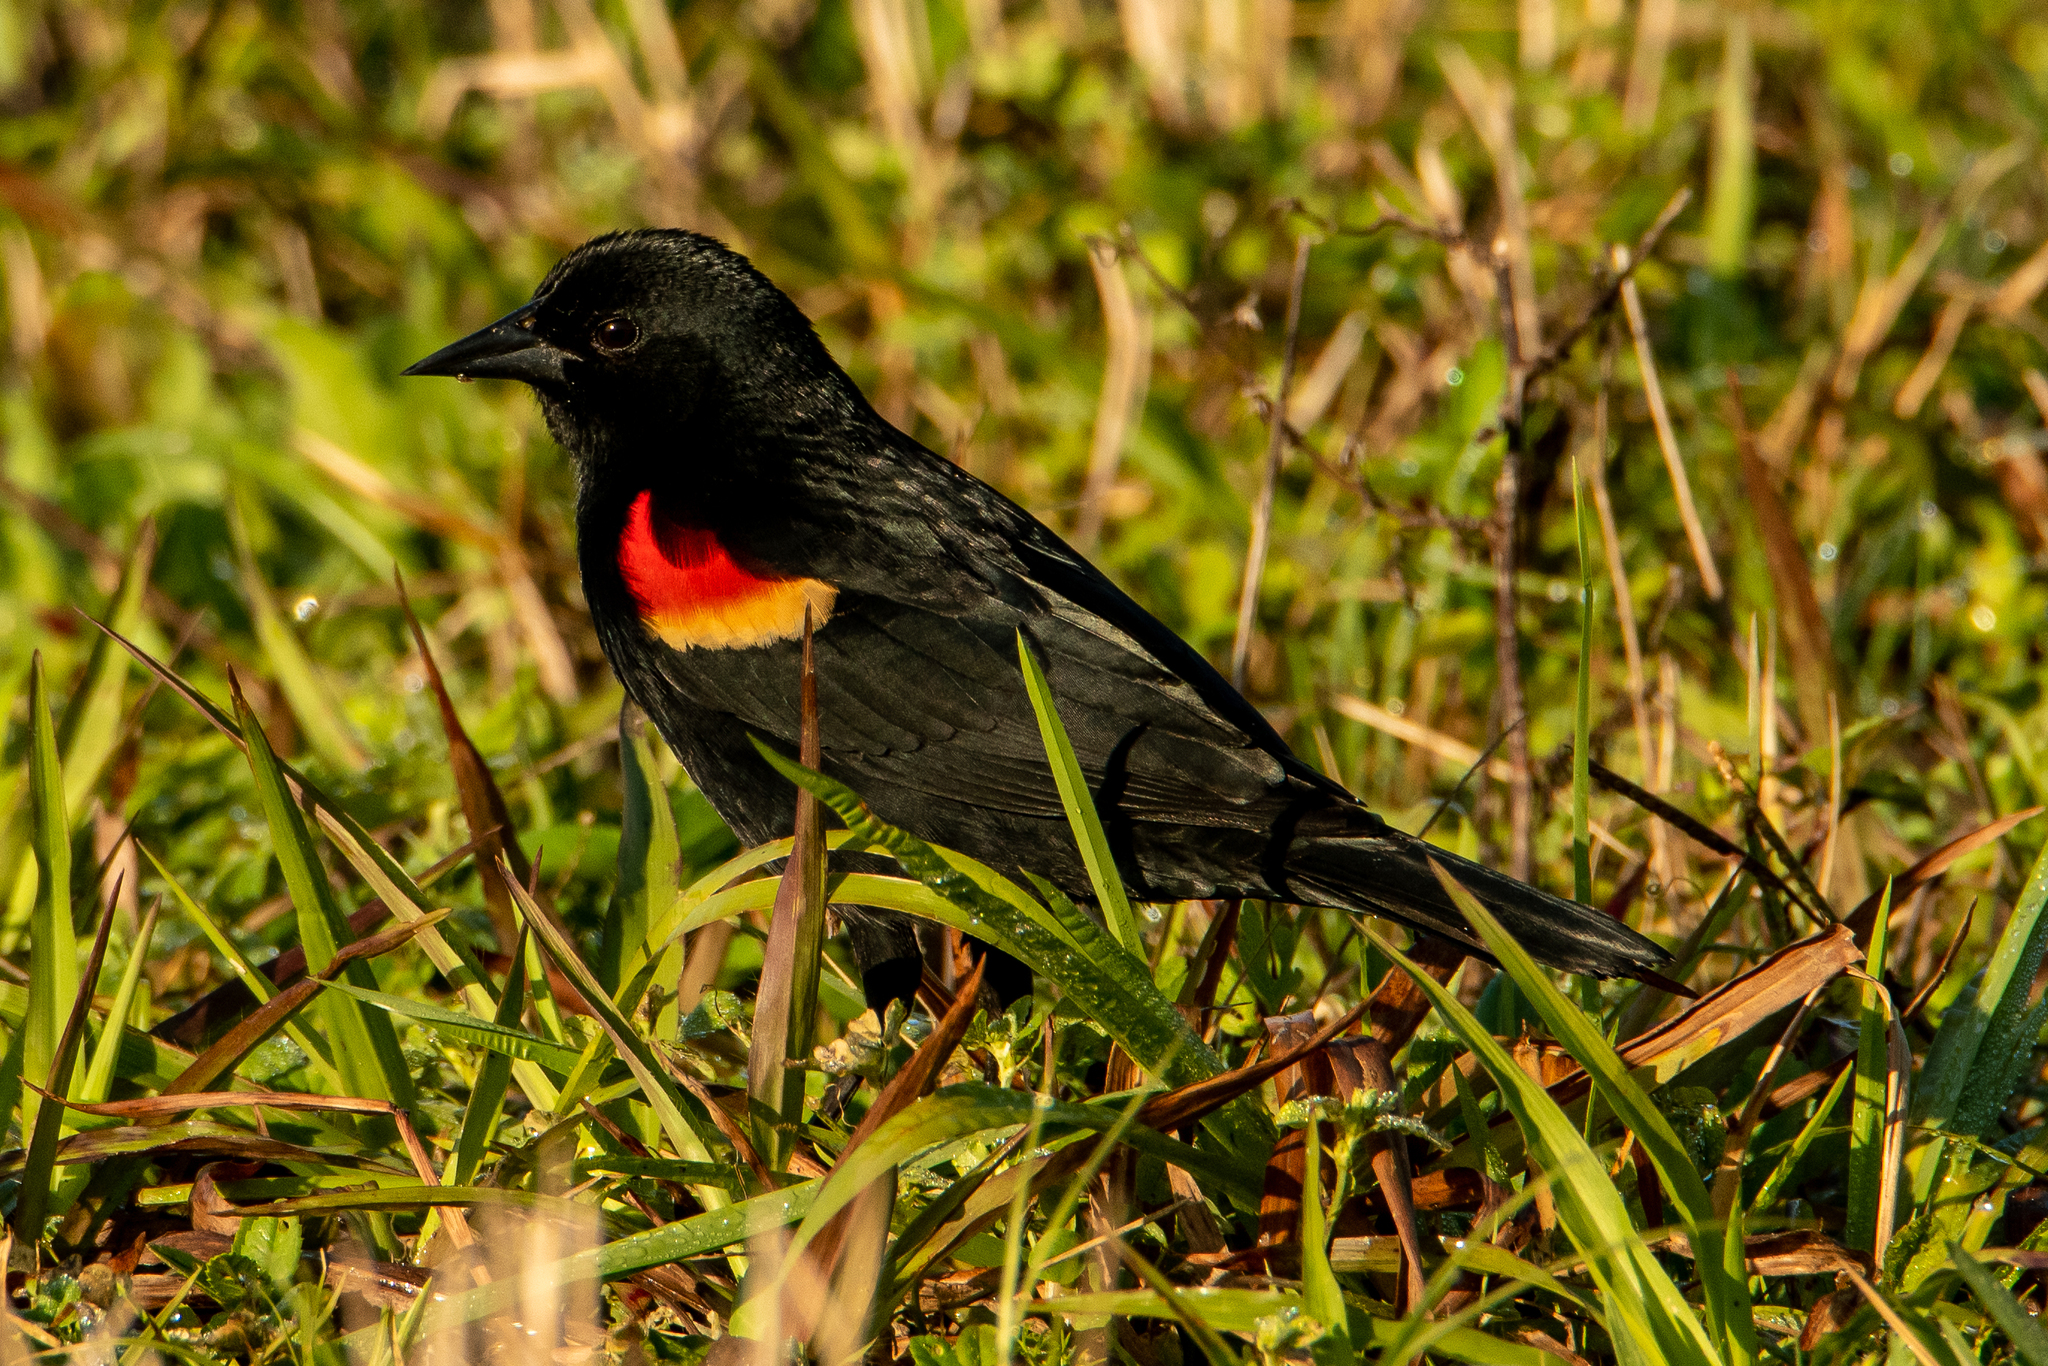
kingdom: Animalia
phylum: Chordata
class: Aves
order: Passeriformes
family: Icteridae
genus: Agelaius
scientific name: Agelaius phoeniceus
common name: Red-winged blackbird
